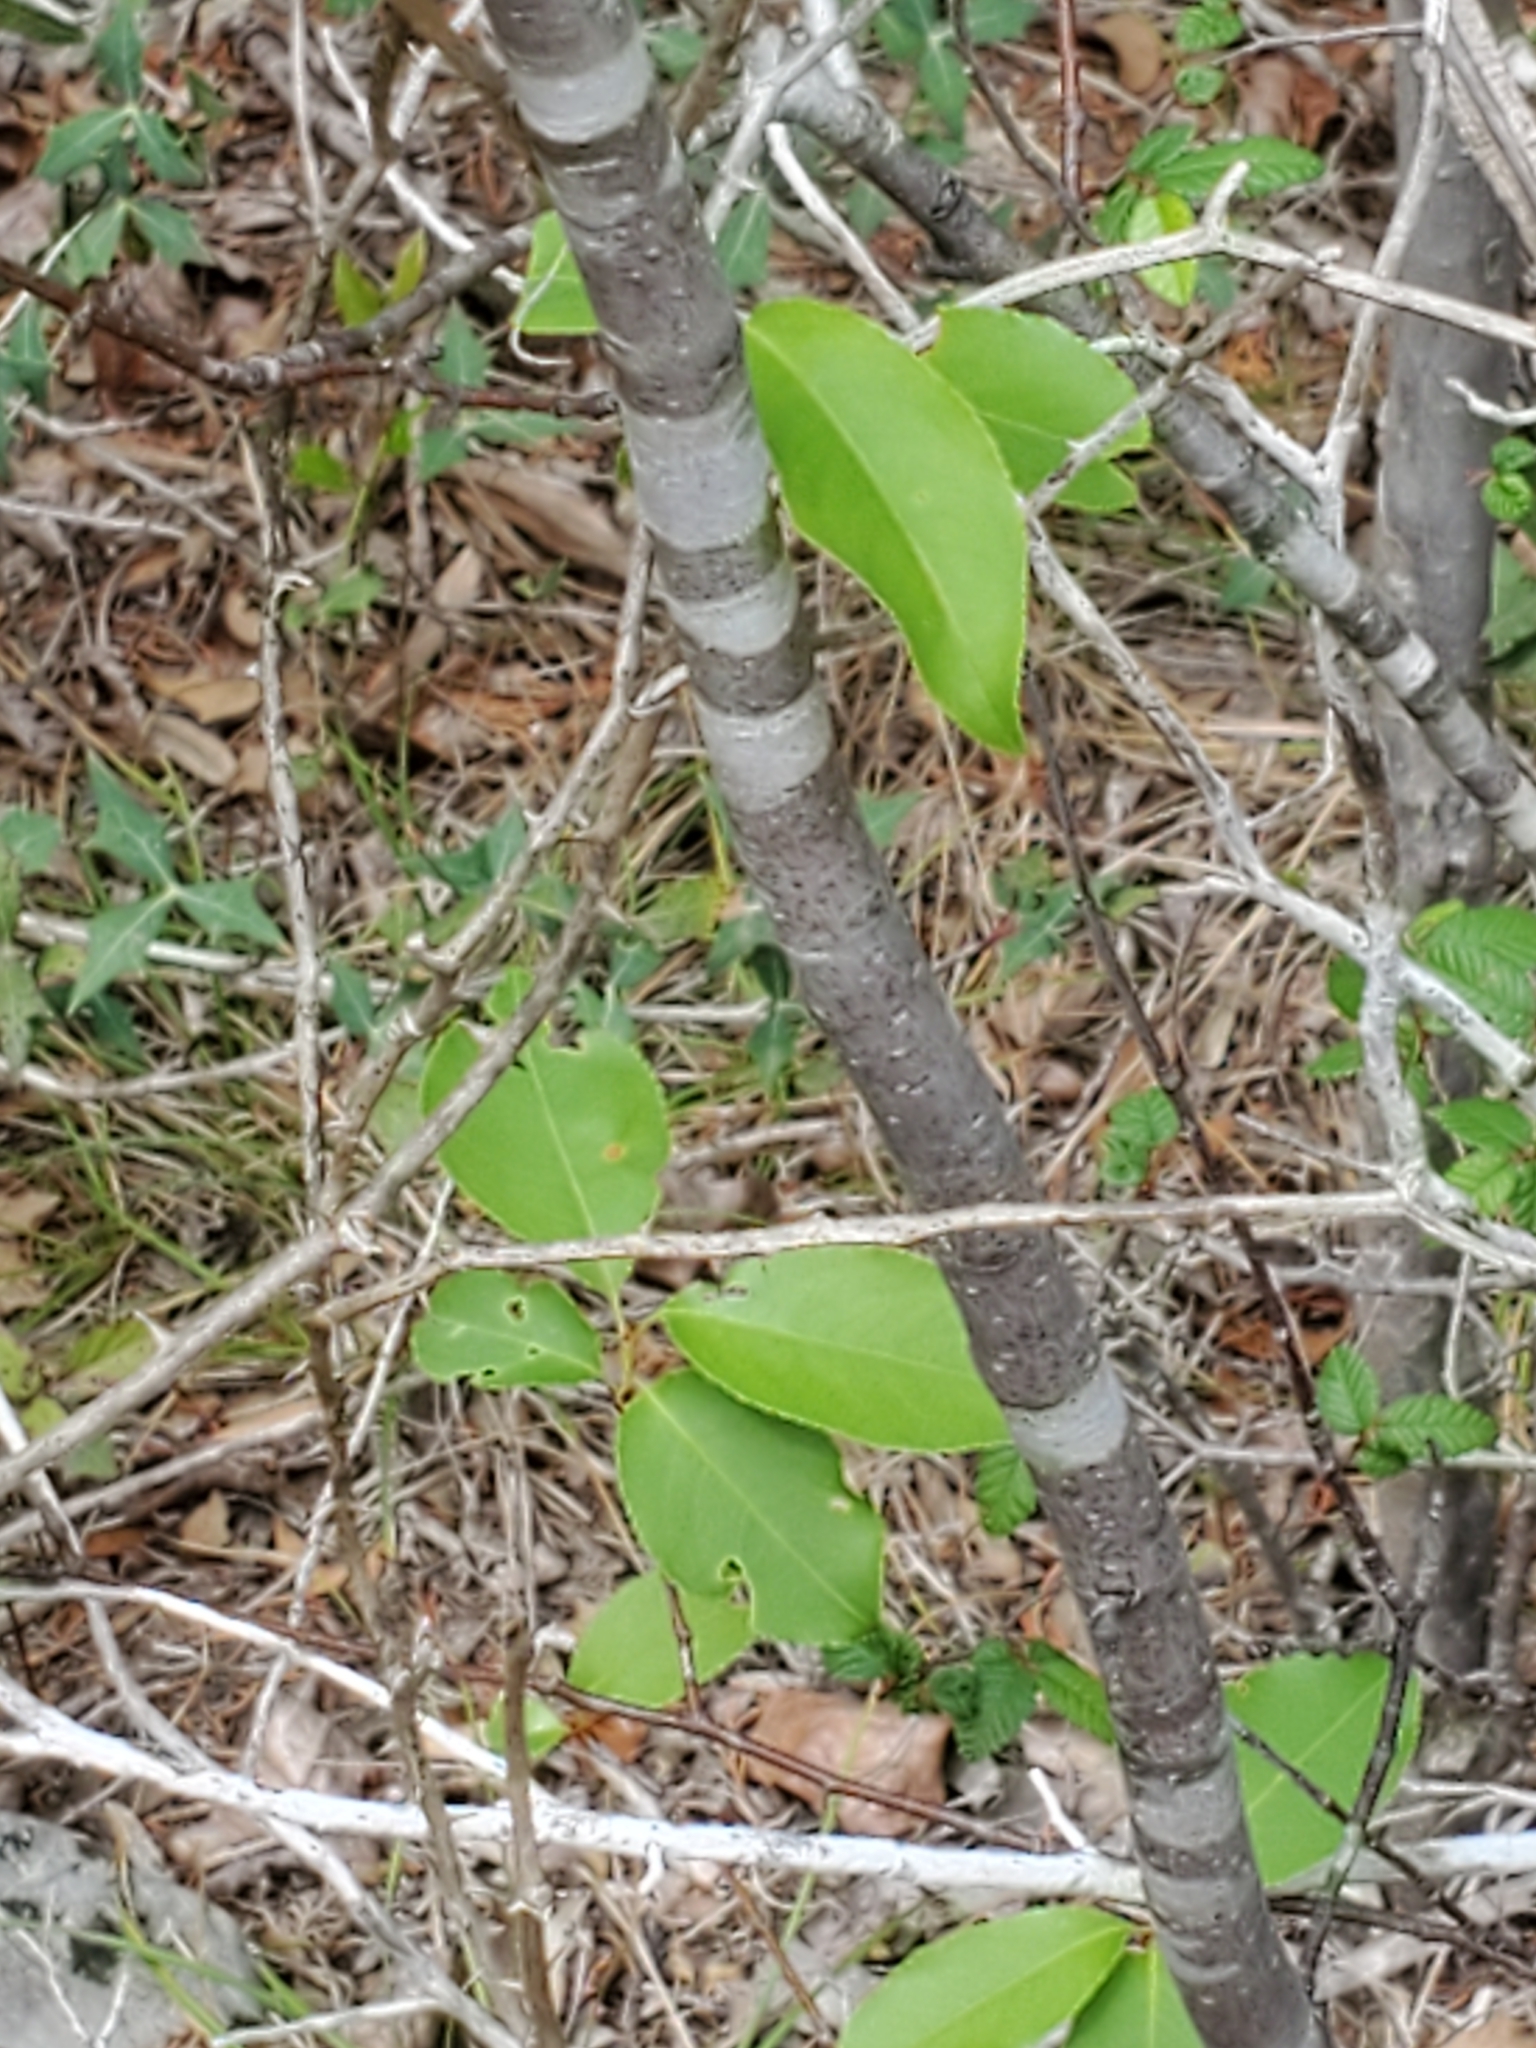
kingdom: Plantae
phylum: Tracheophyta
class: Magnoliopsida
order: Rosales
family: Rosaceae
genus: Prunus
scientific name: Prunus serotina
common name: Black cherry
